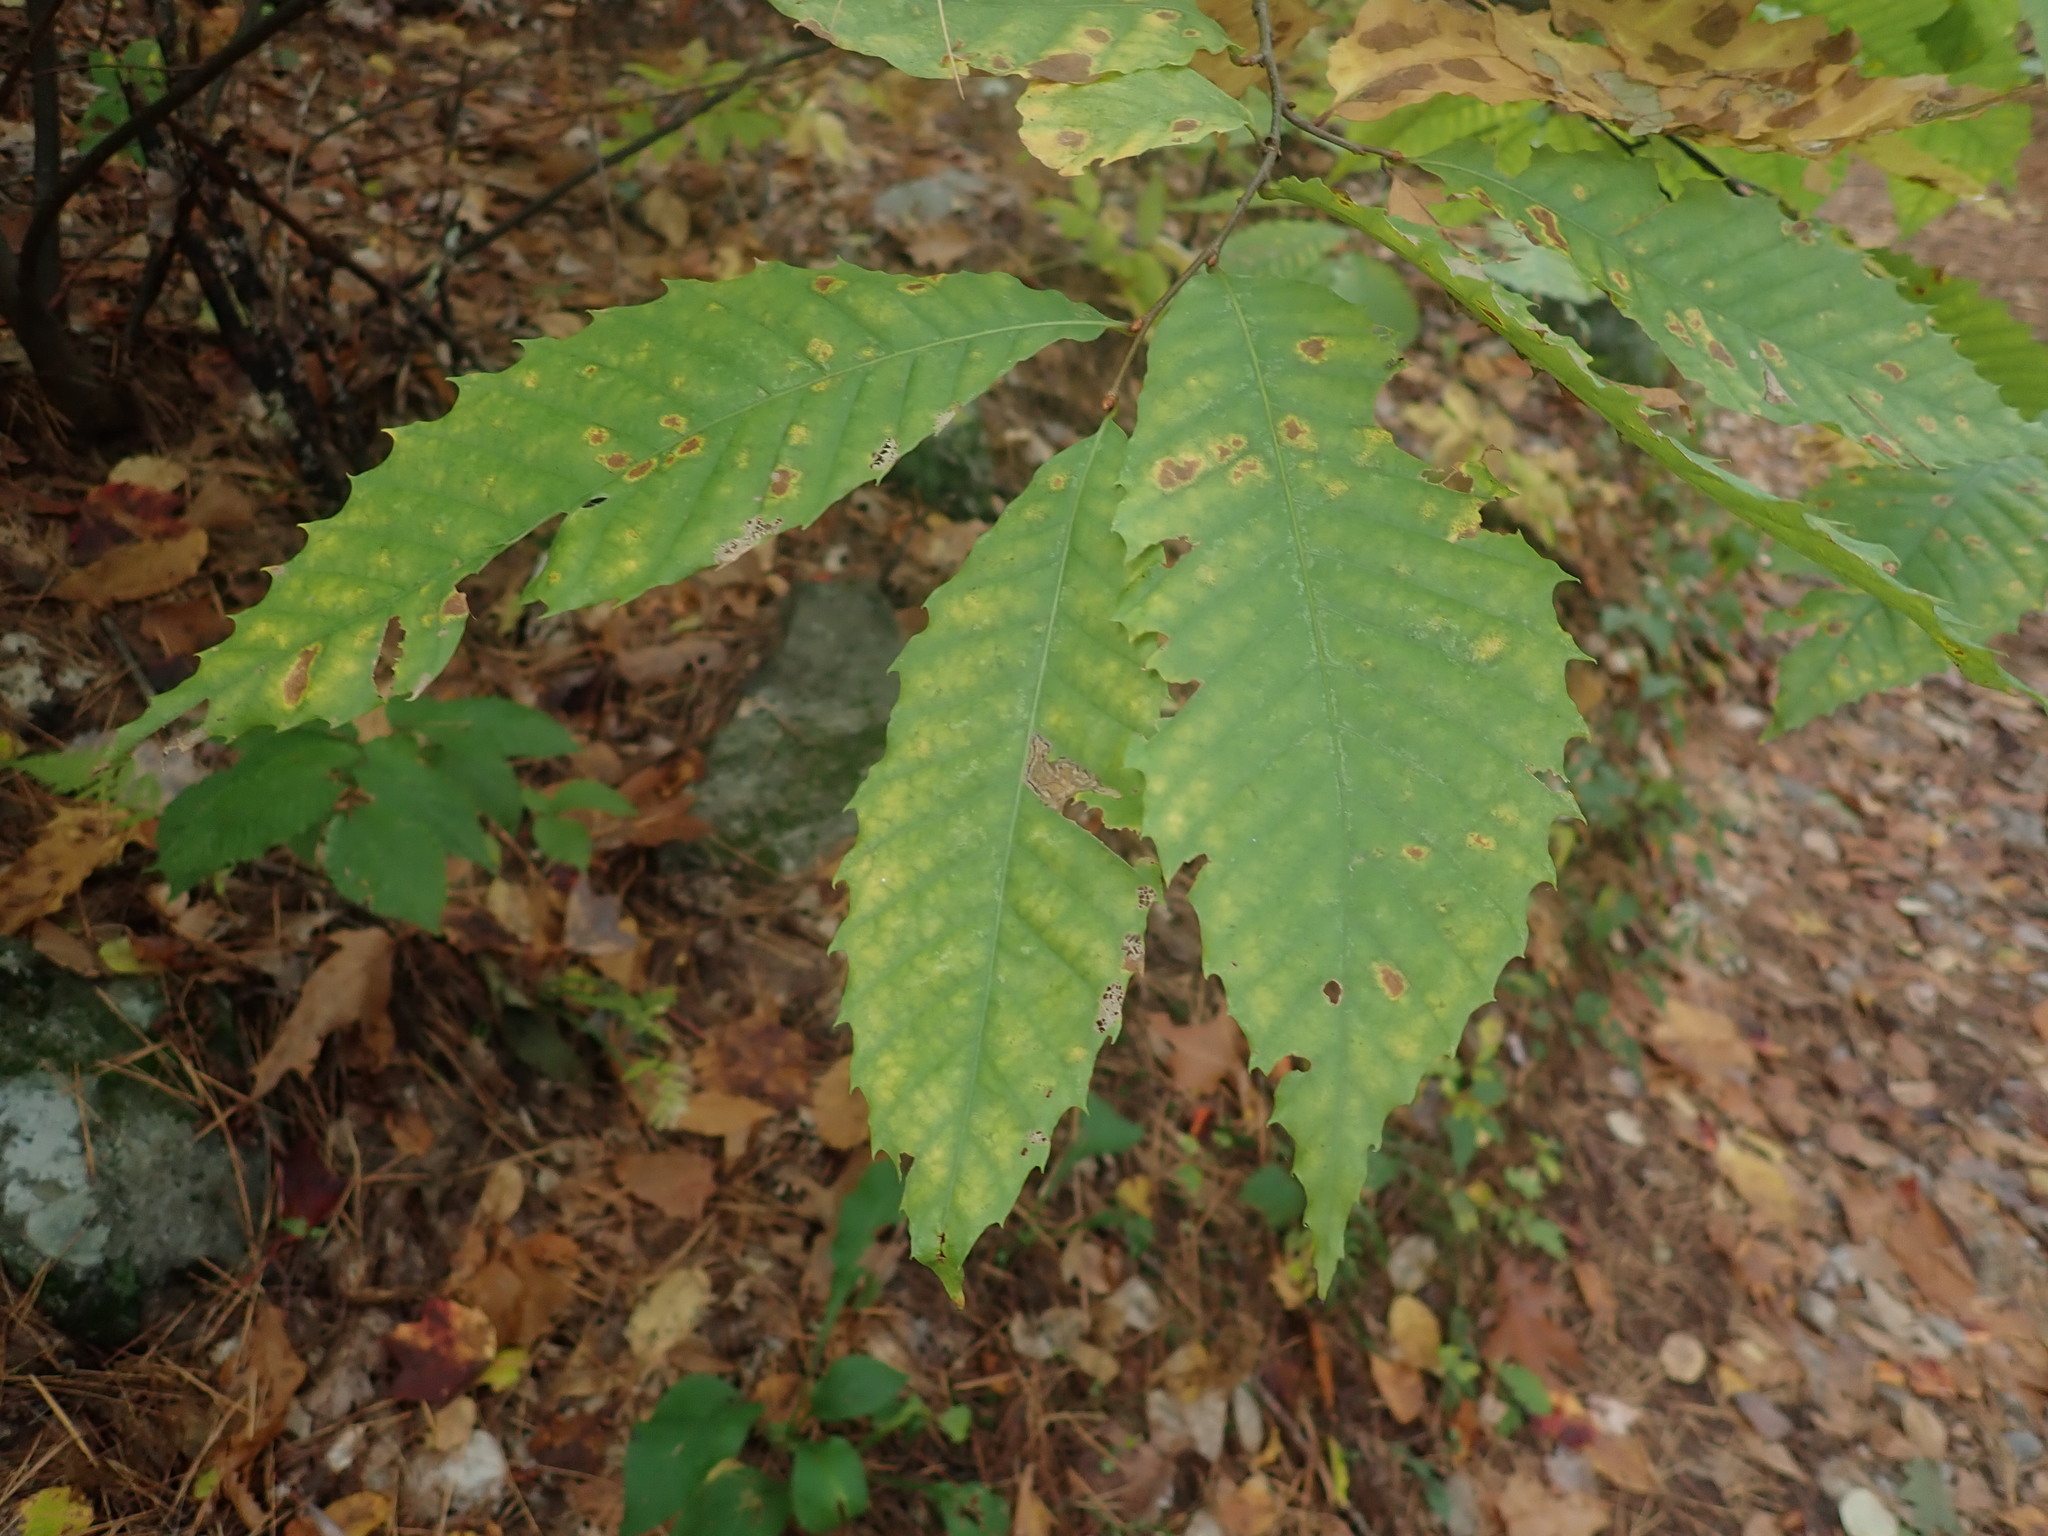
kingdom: Plantae
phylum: Tracheophyta
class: Magnoliopsida
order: Fagales
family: Fagaceae
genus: Castanea
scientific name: Castanea dentata
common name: American chestnut
